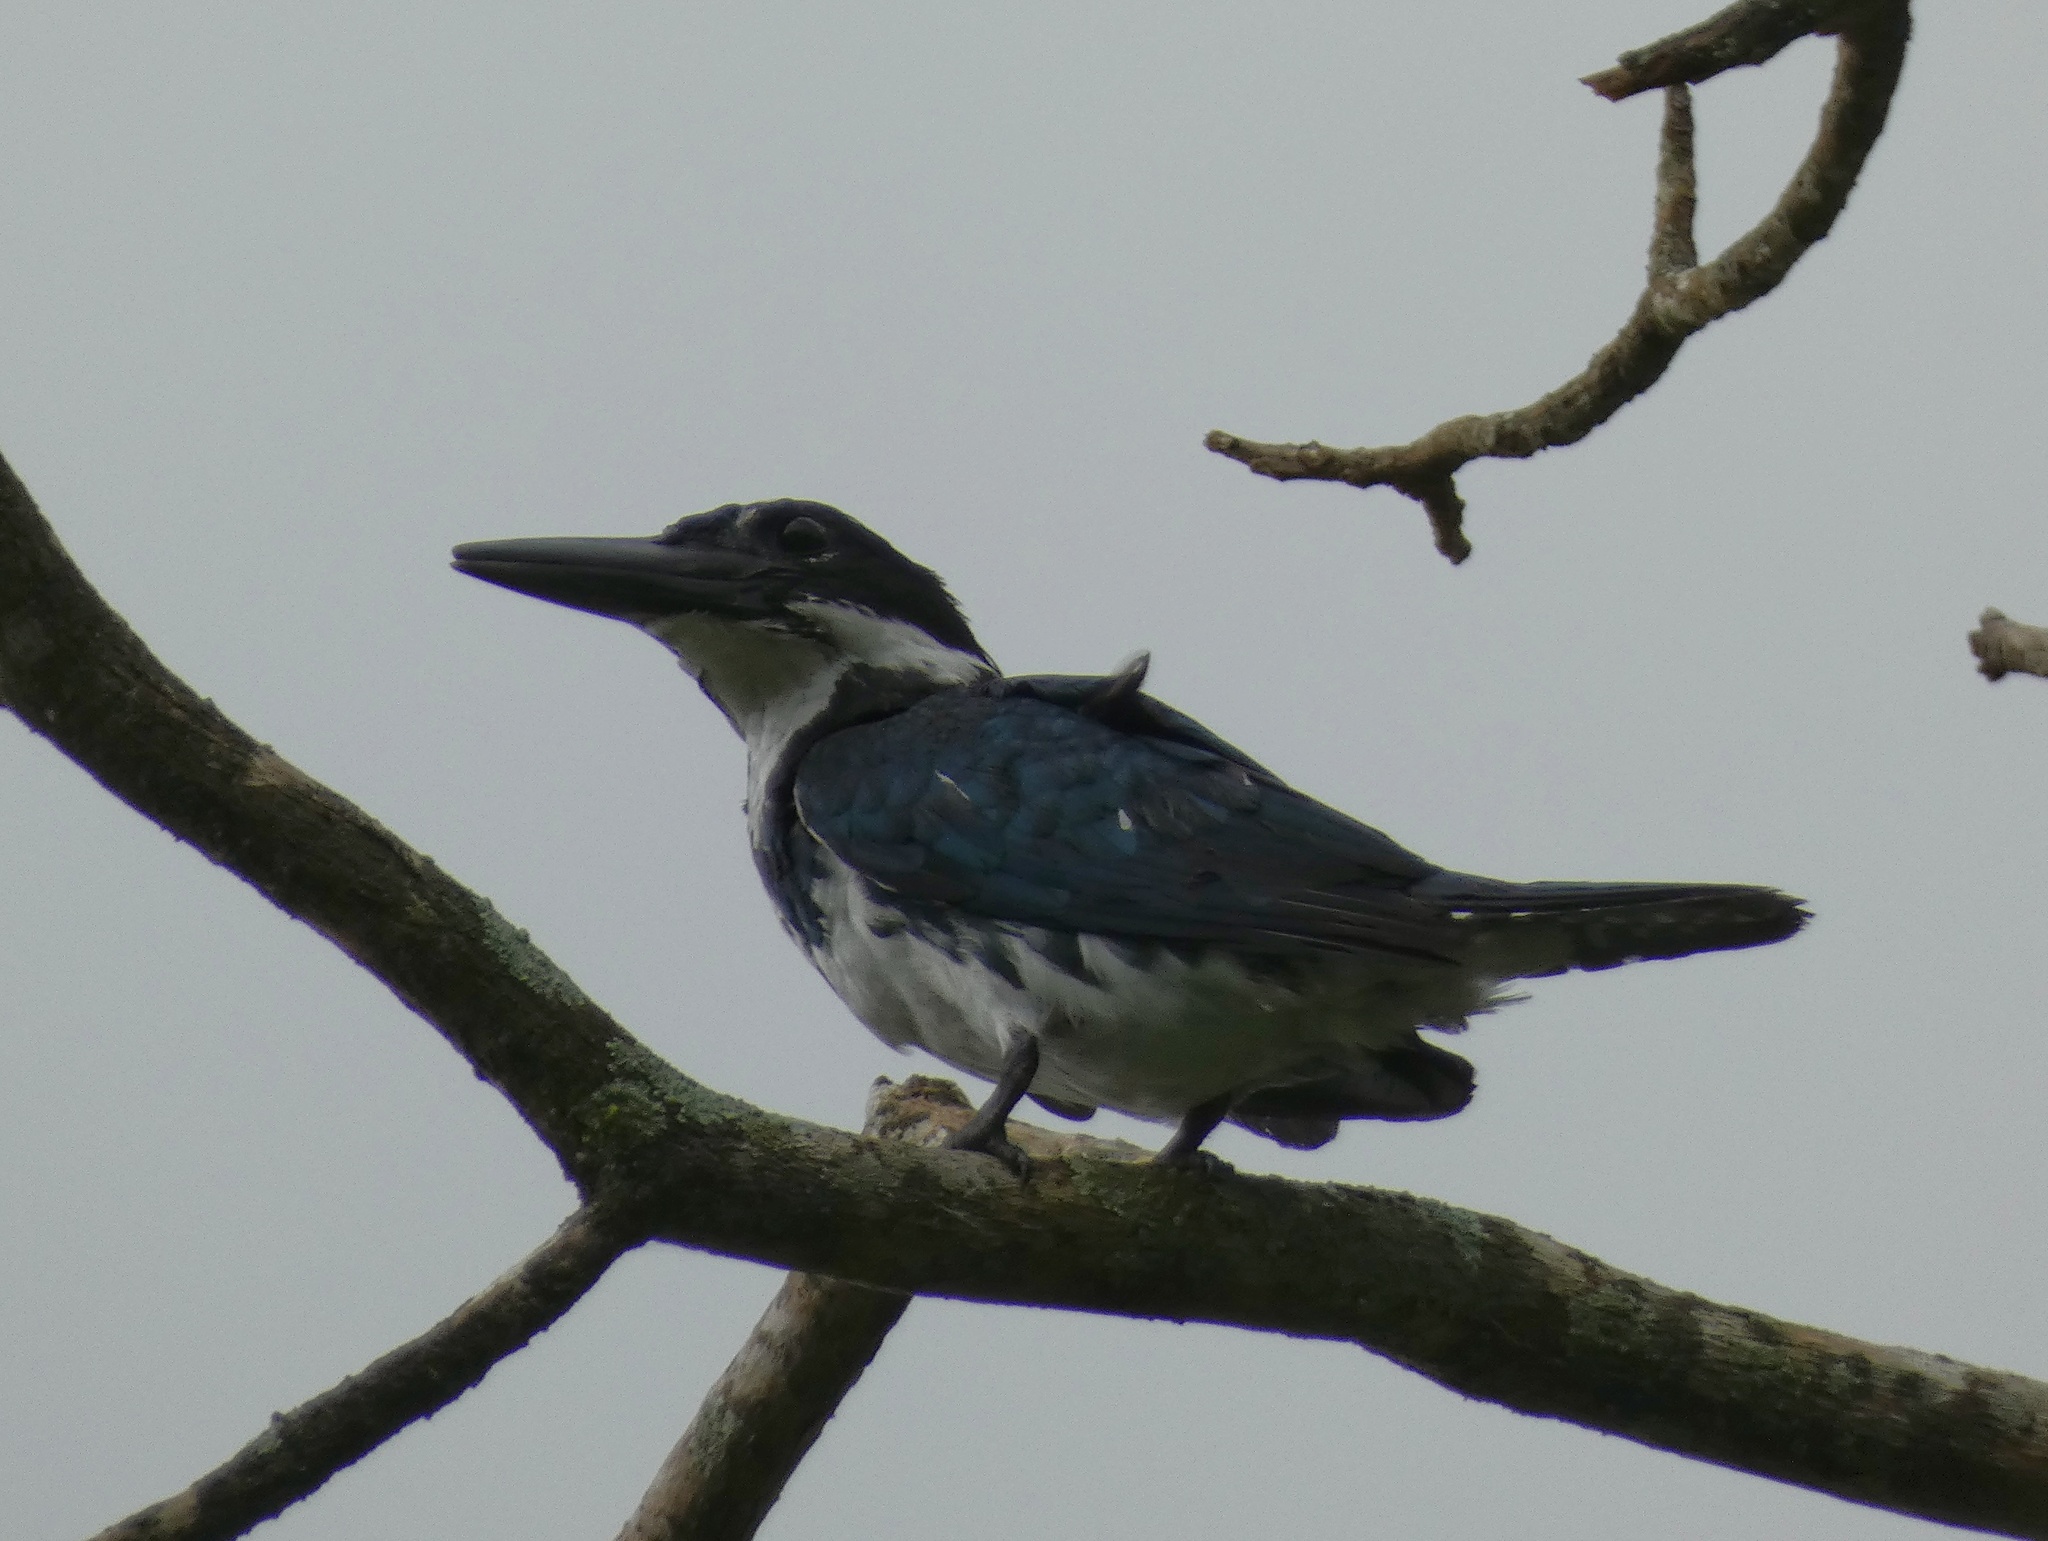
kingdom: Animalia
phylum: Chordata
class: Aves
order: Coraciiformes
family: Alcedinidae
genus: Chloroceryle
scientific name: Chloroceryle amazona
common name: Amazon kingfisher
